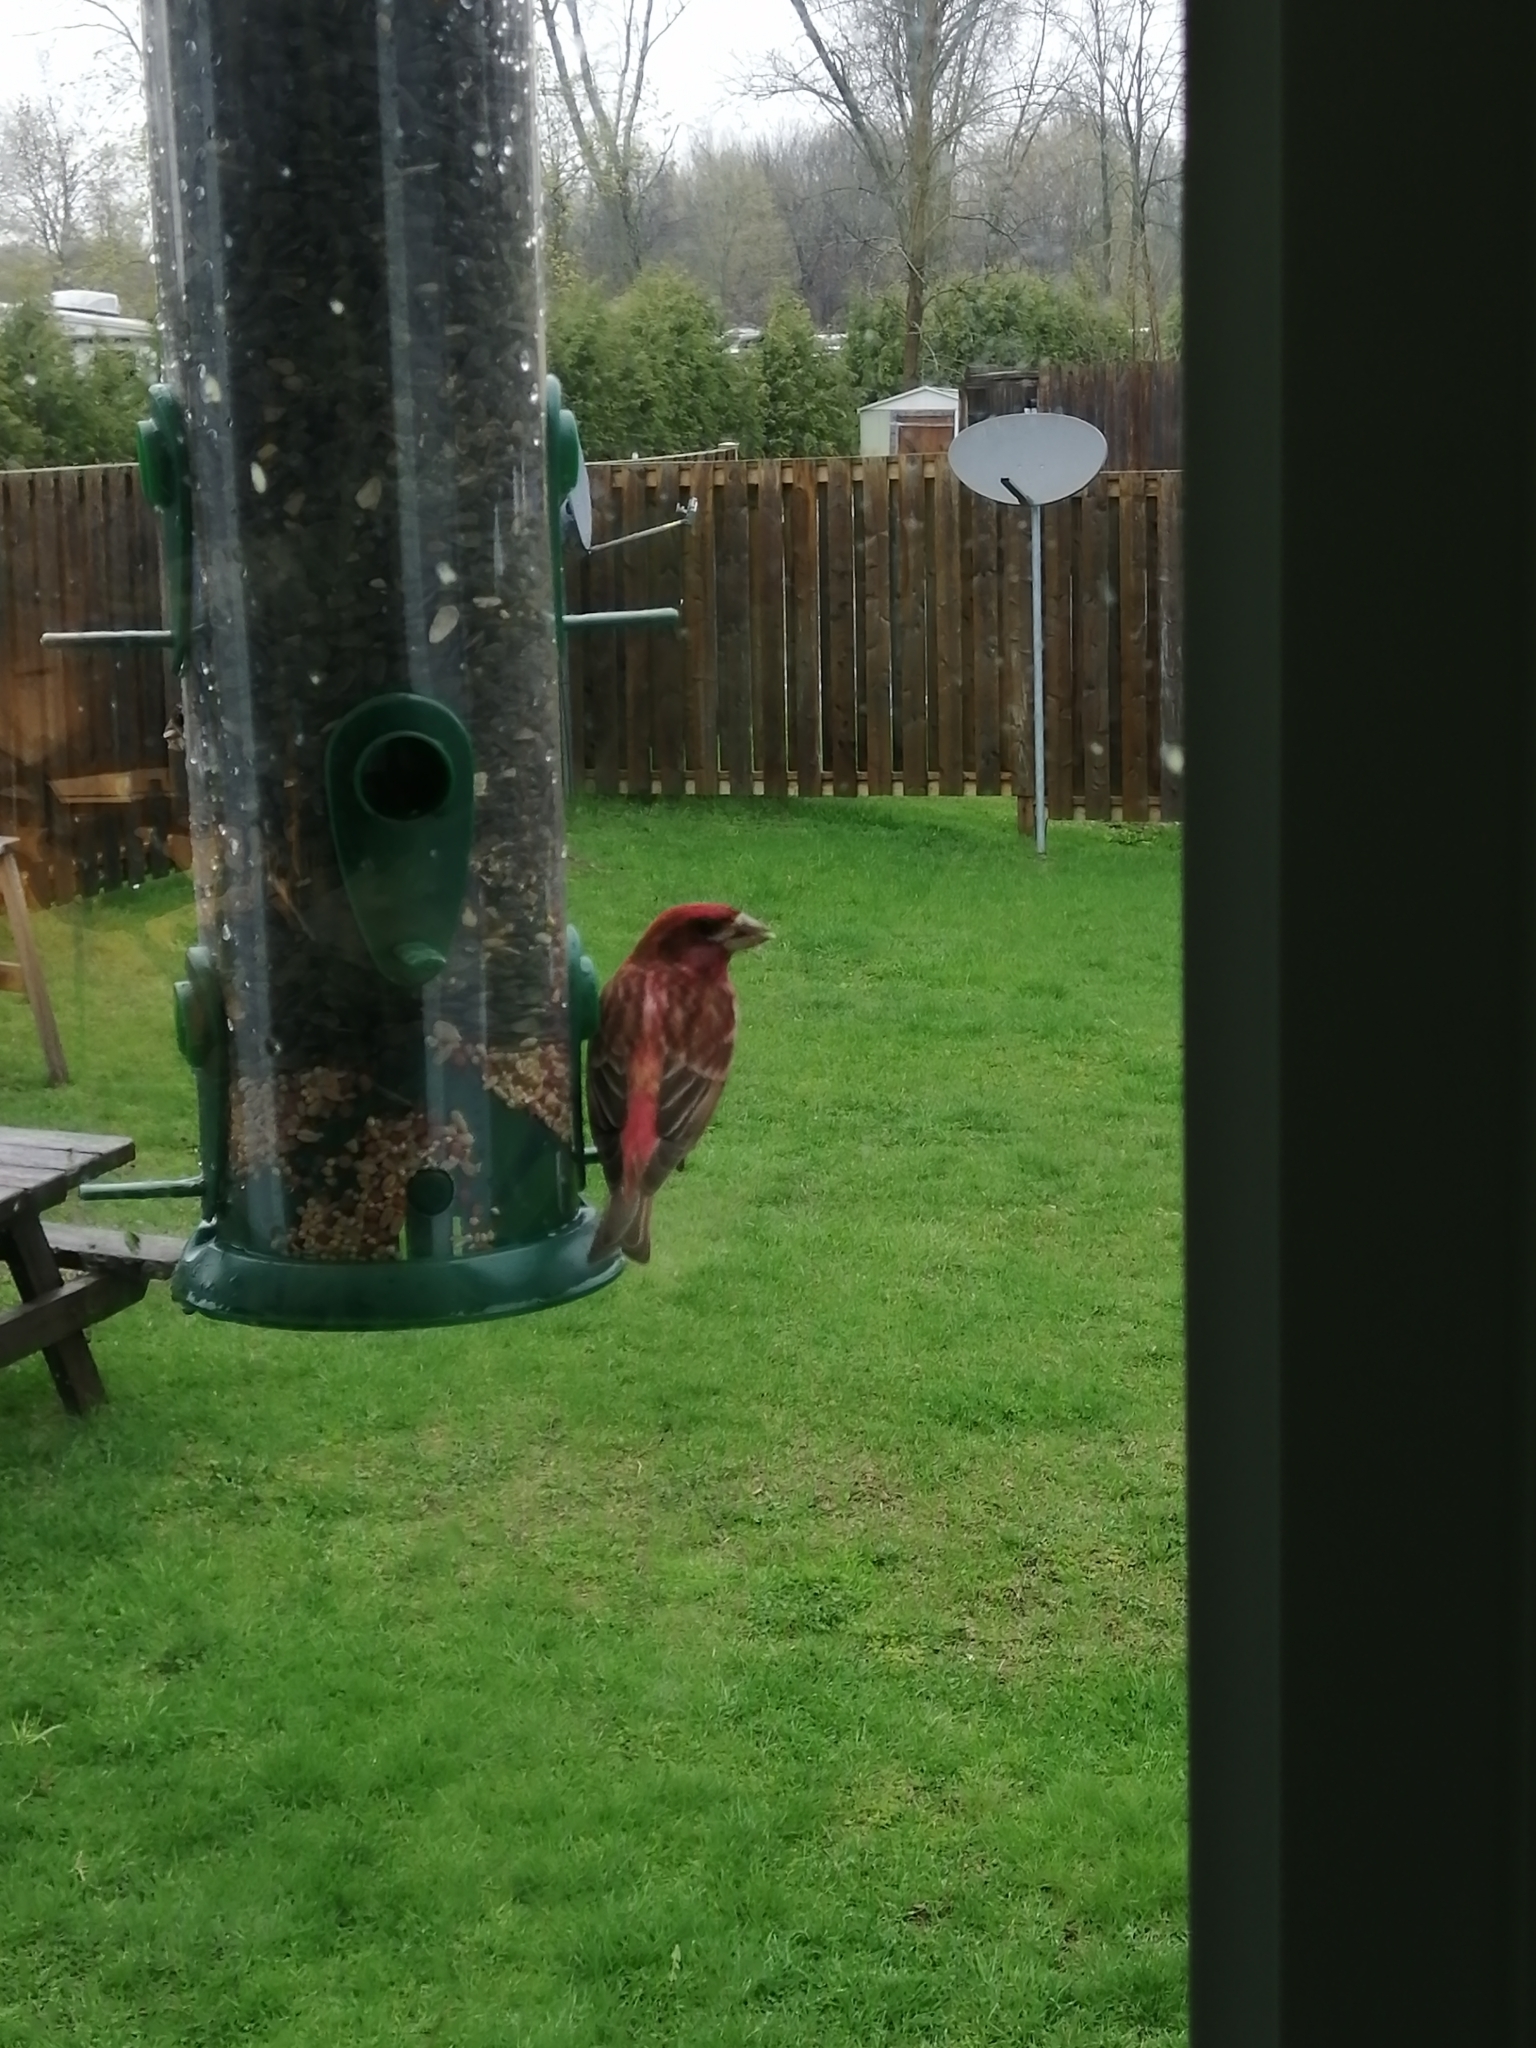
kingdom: Animalia
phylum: Chordata
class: Aves
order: Passeriformes
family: Fringillidae
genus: Haemorhous
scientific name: Haemorhous purpureus
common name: Purple finch
